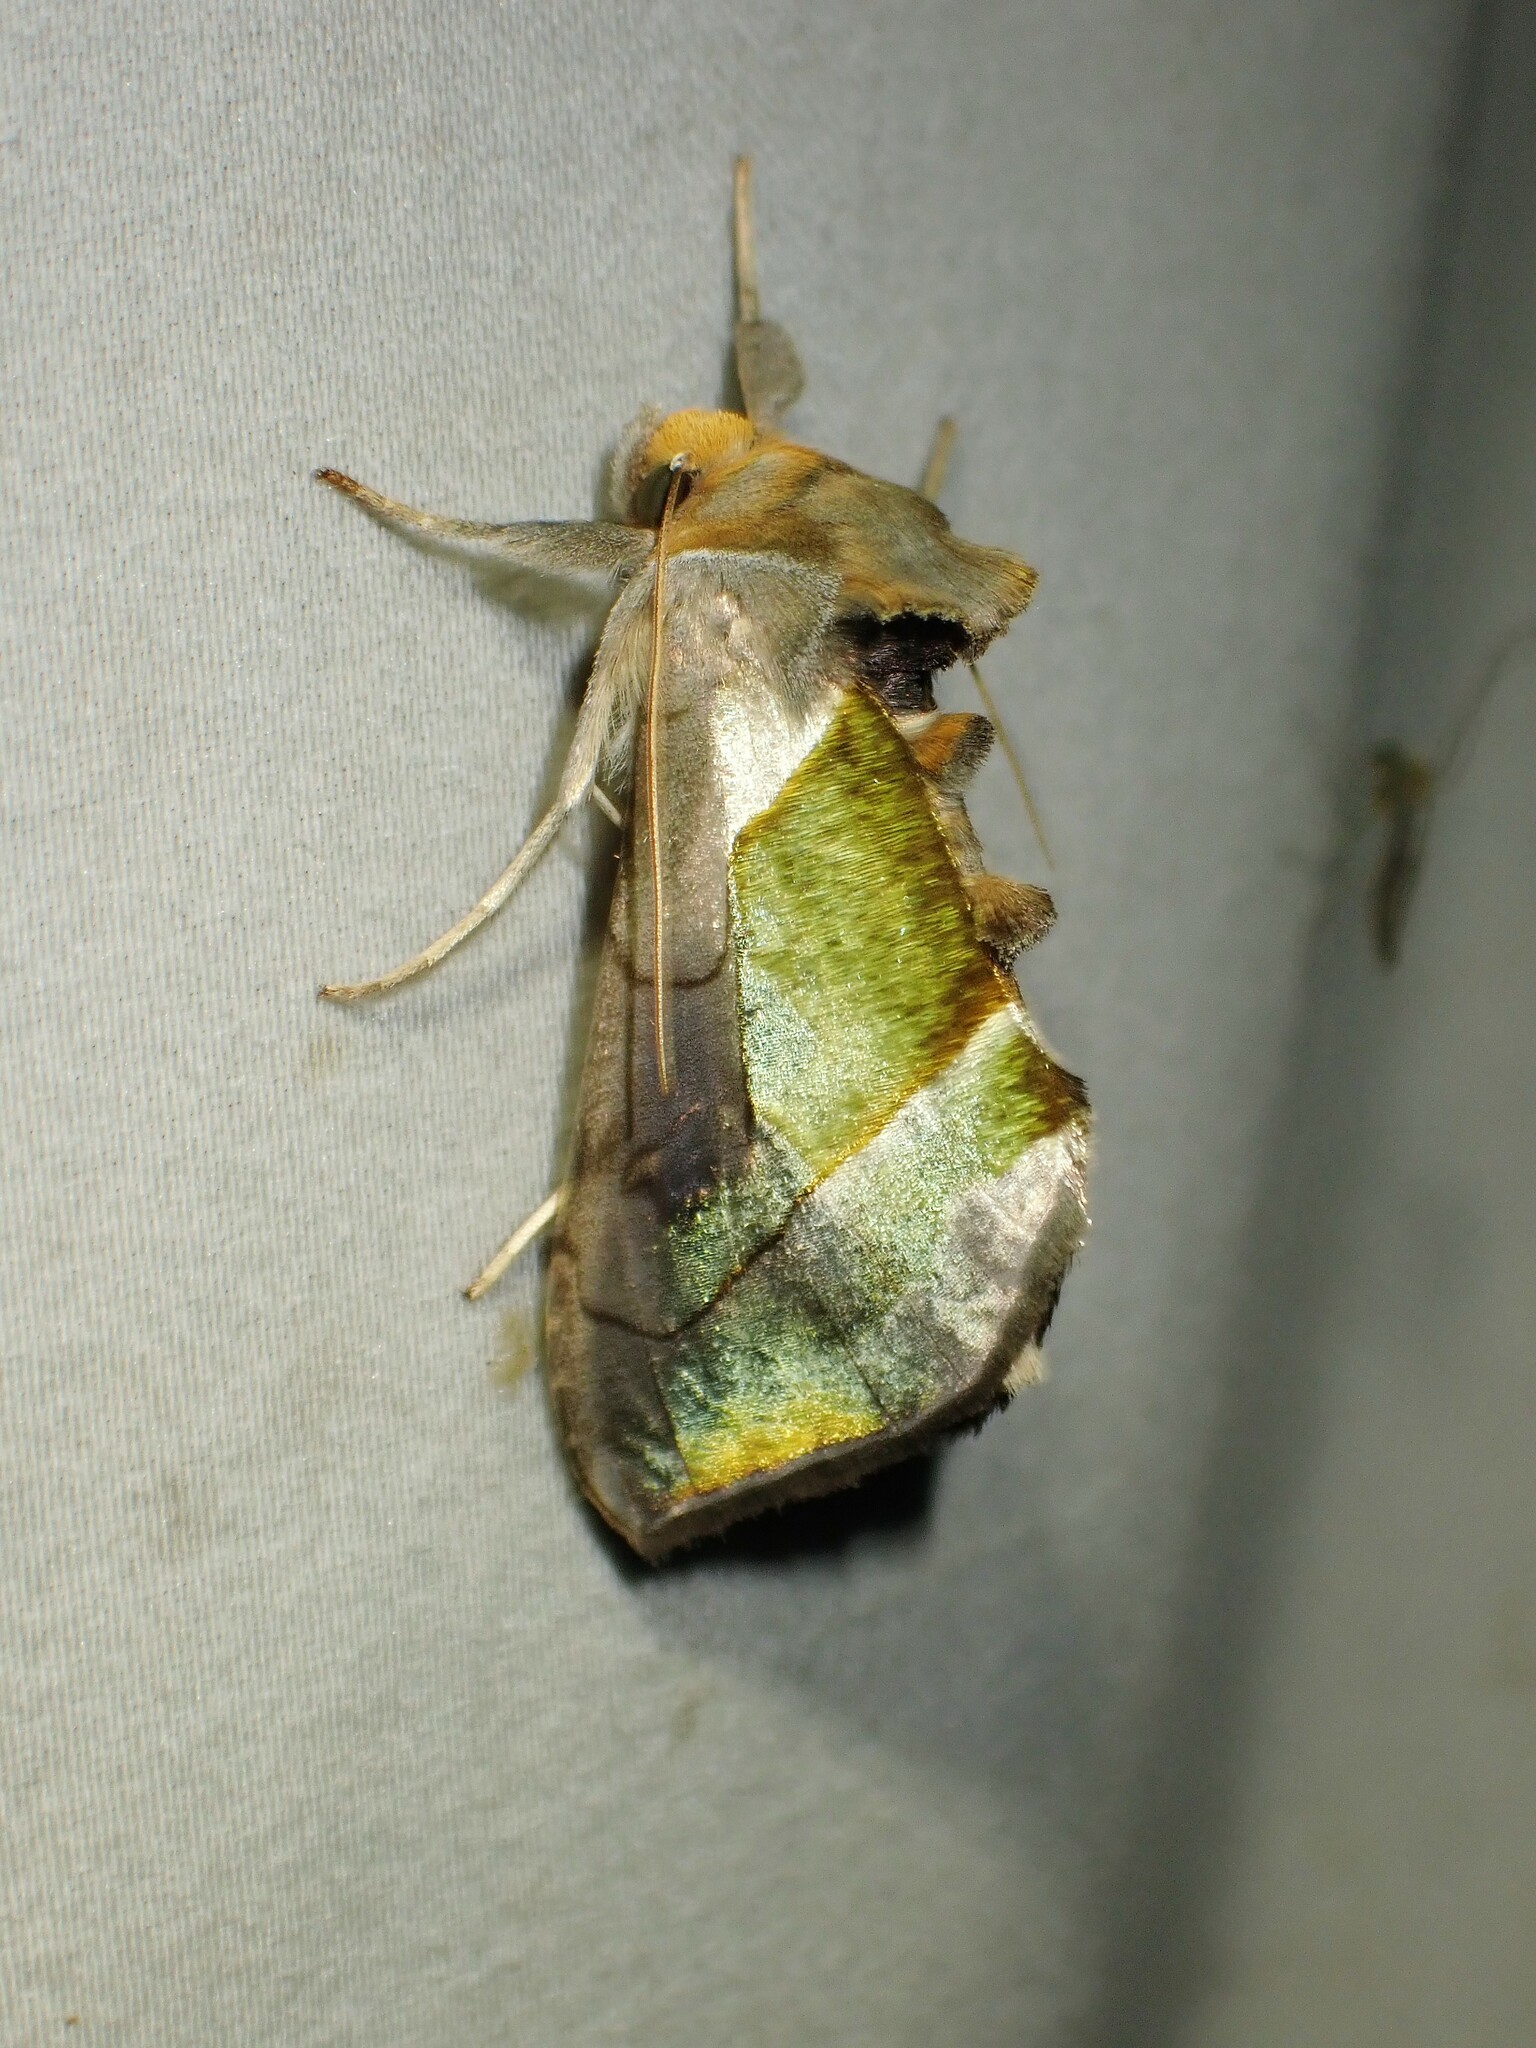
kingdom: Animalia
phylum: Arthropoda
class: Insecta
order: Lepidoptera
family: Noctuidae
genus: Diachrysia
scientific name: Diachrysia balluca
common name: Green-patched looper moth
